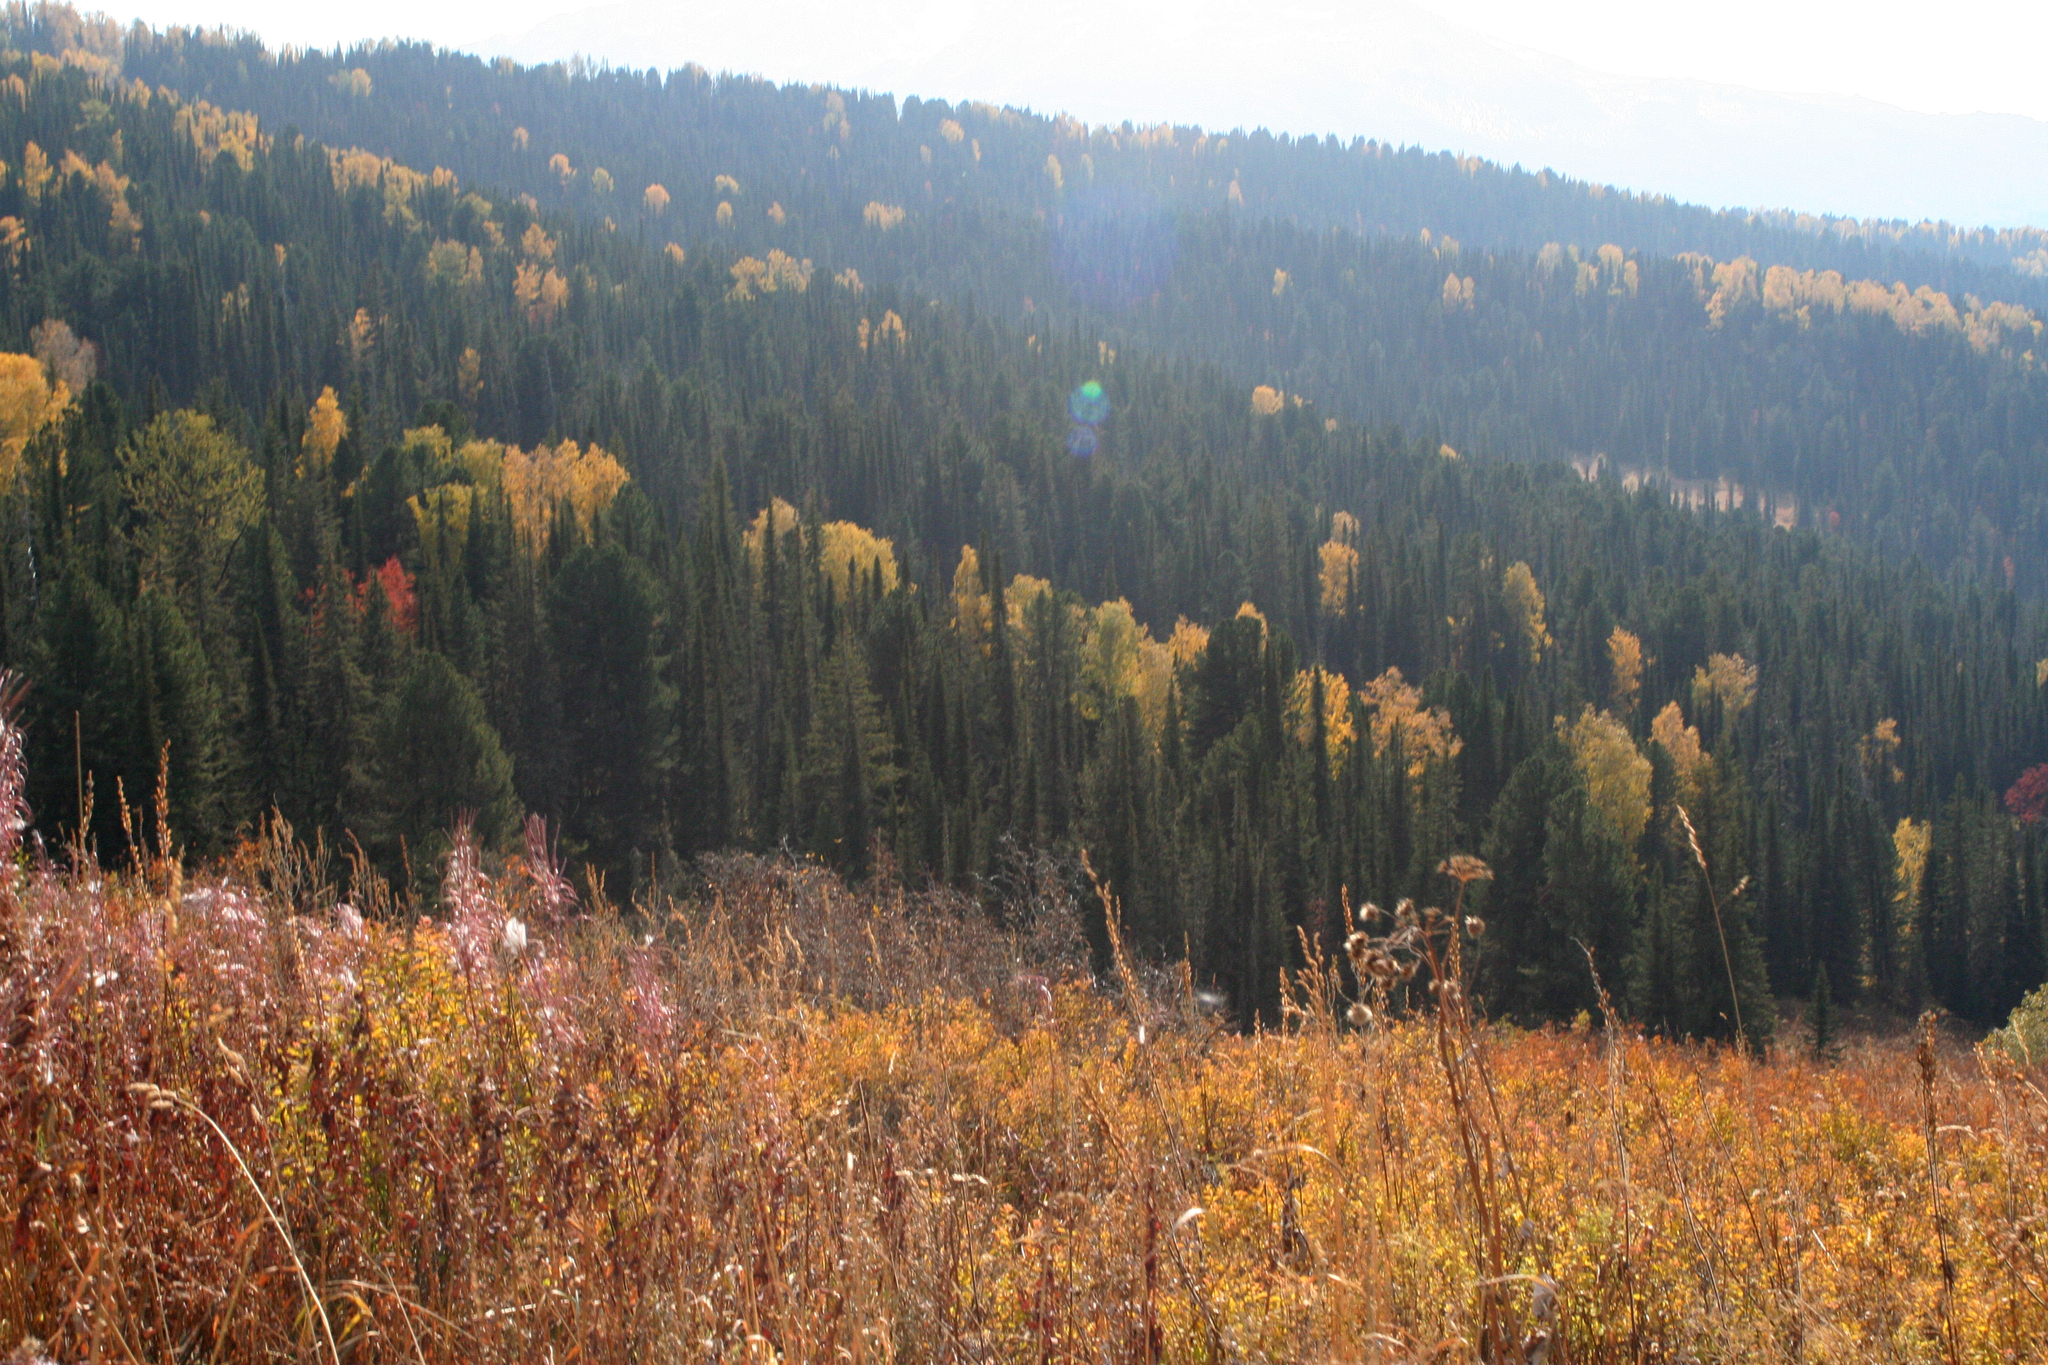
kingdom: Plantae
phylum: Tracheophyta
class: Pinopsida
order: Pinales
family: Pinaceae
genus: Abies
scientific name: Abies sibirica
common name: Siberian fir
